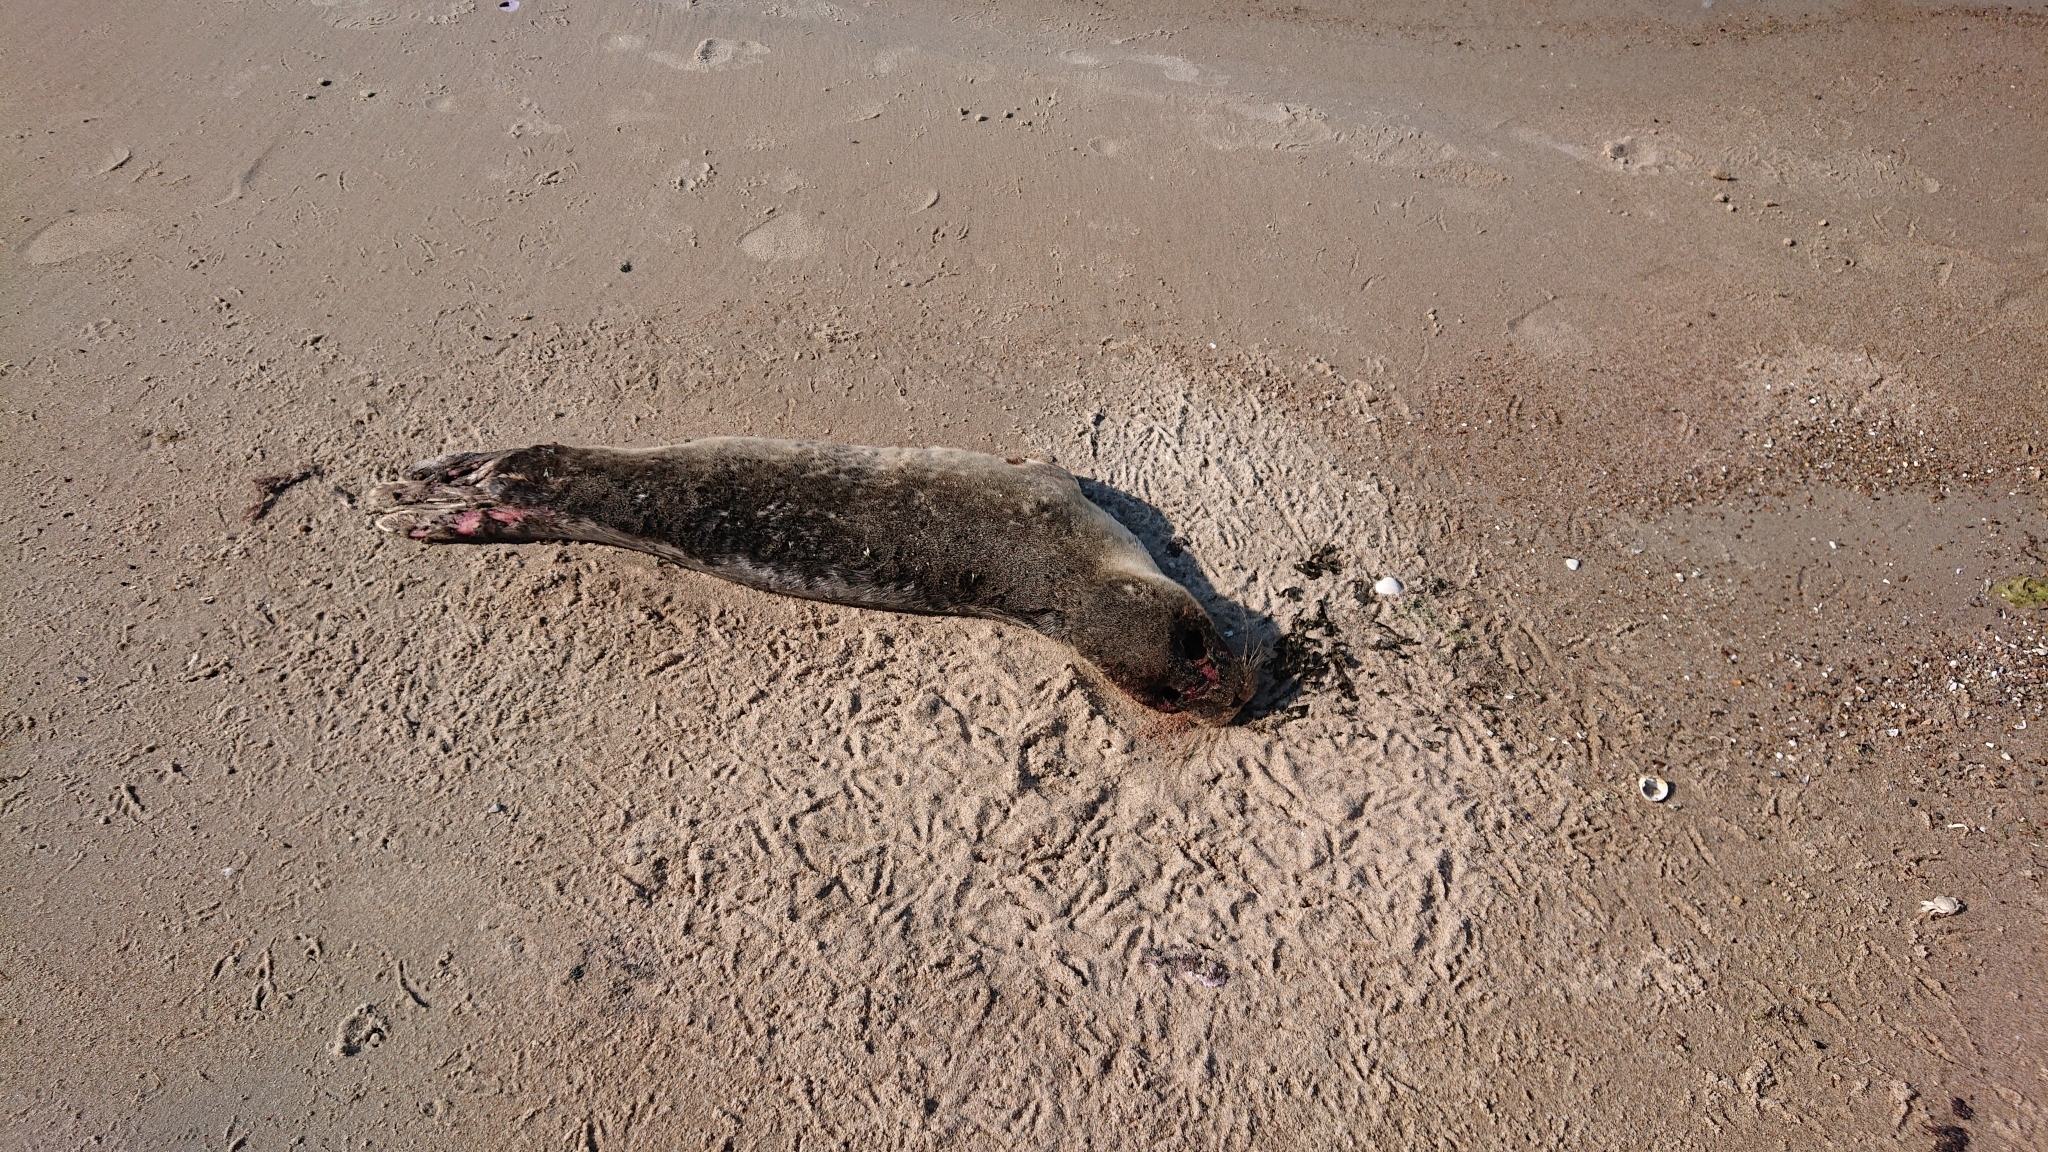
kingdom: Animalia
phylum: Chordata
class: Mammalia
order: Carnivora
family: Phocidae
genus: Phoca
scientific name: Phoca vitulina
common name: Harbor seal
